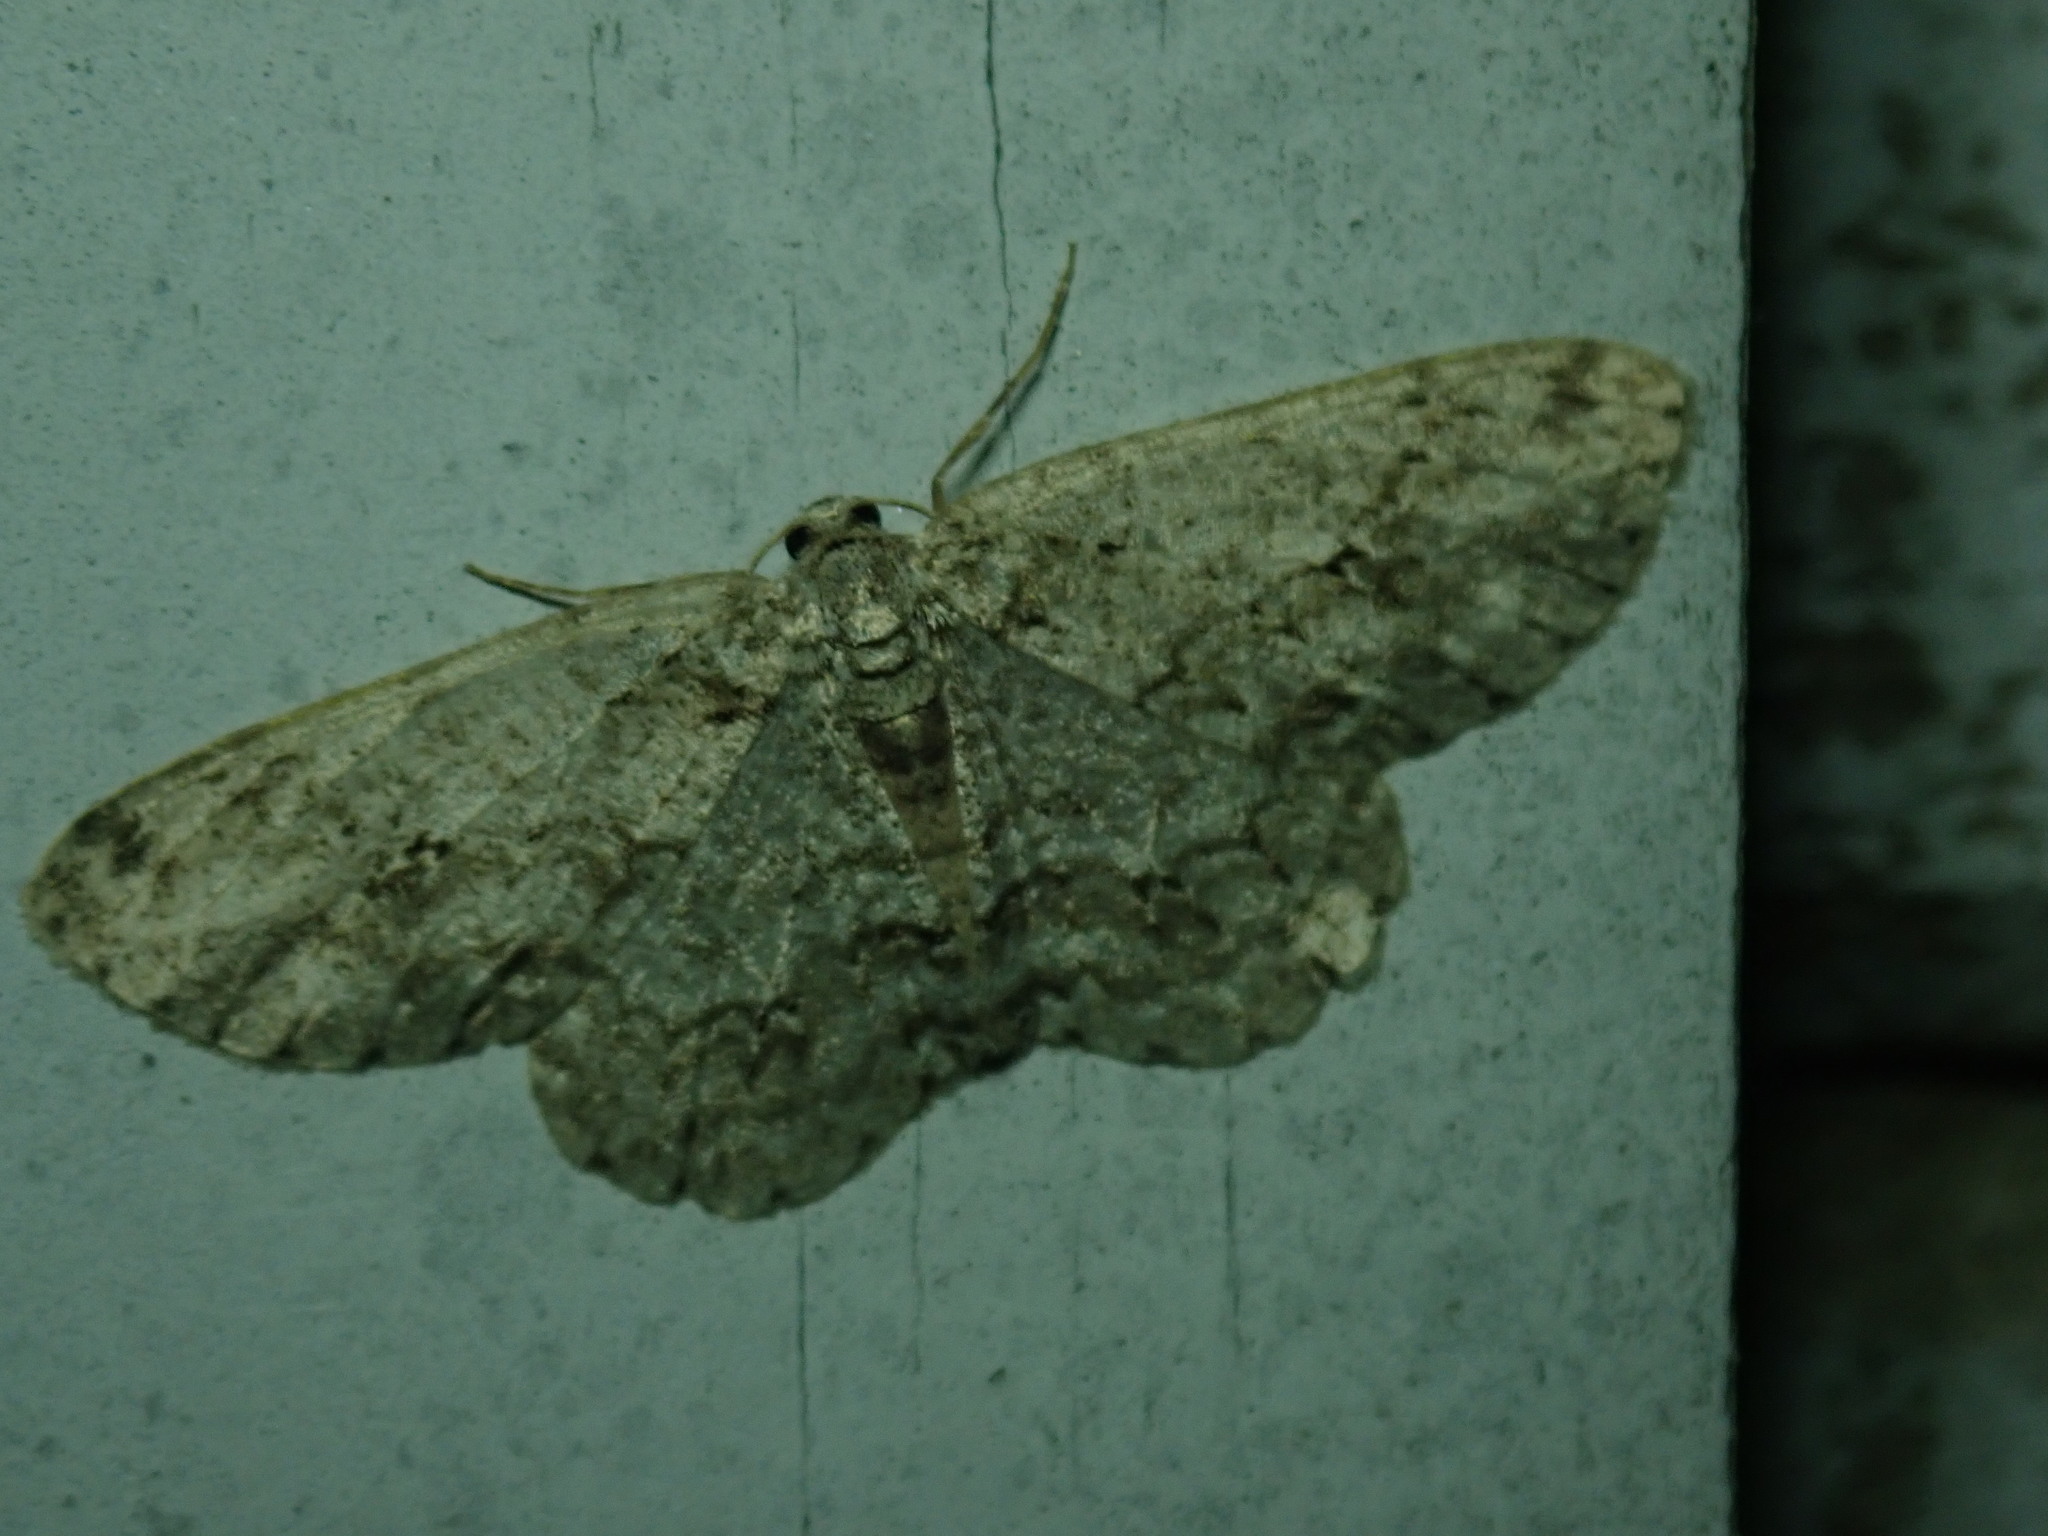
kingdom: Animalia
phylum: Arthropoda
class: Insecta
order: Lepidoptera
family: Geometridae
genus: Ectropis
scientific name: Ectropis crepuscularia
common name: Engrailed
